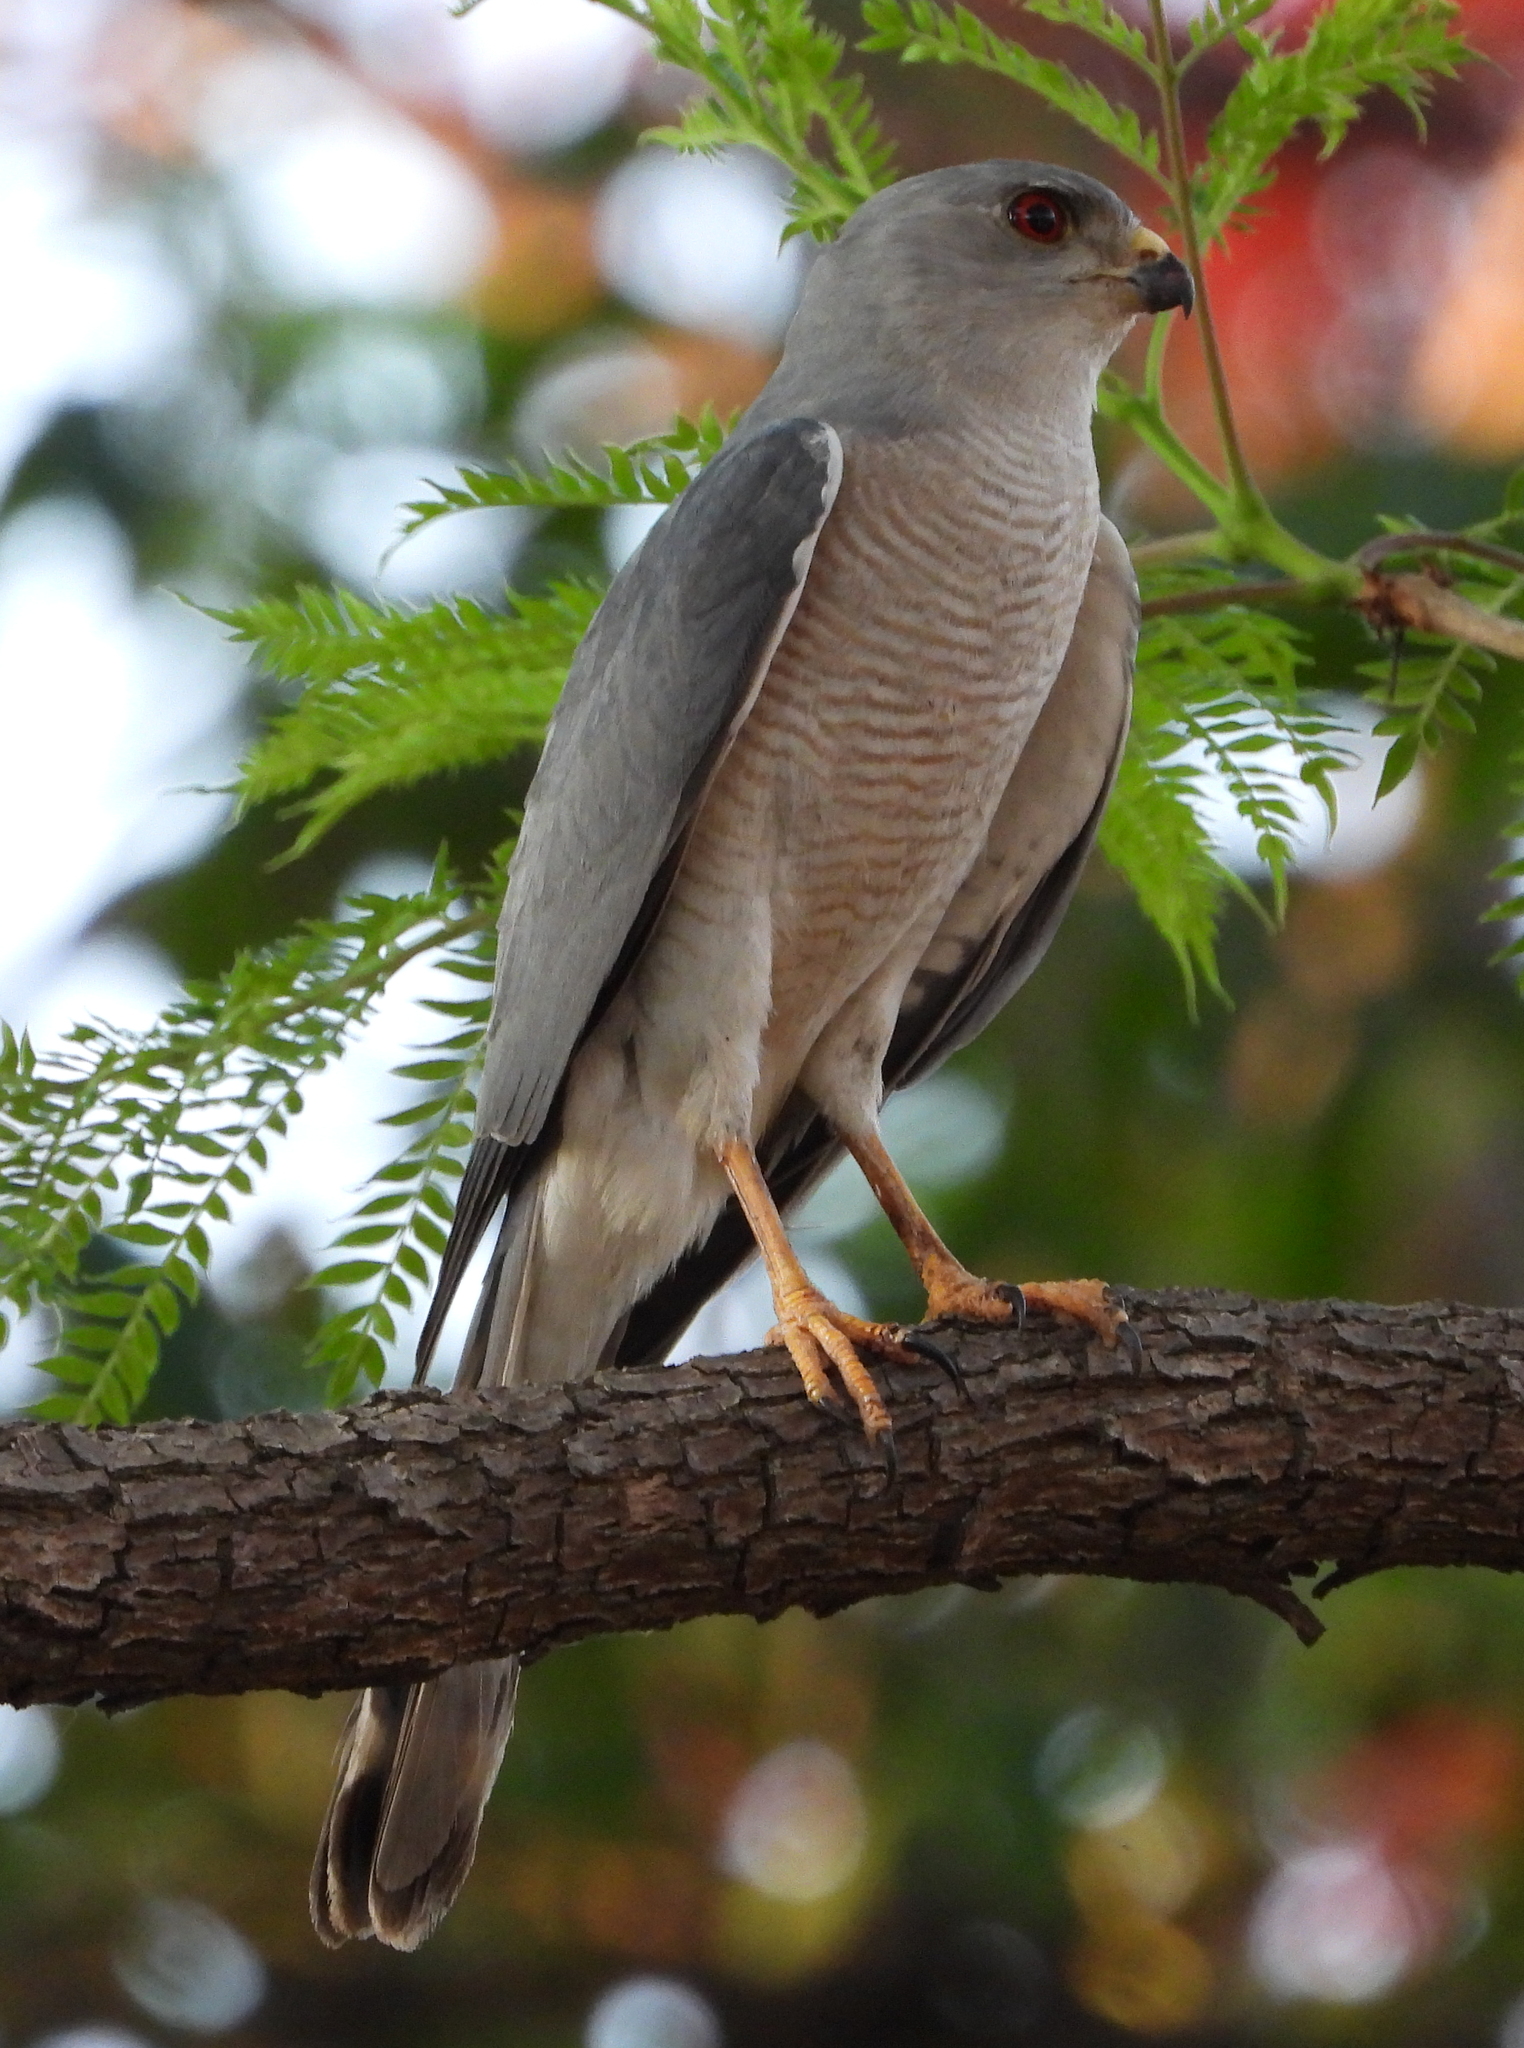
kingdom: Animalia
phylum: Chordata
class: Aves
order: Accipitriformes
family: Accipitridae
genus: Accipiter
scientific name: Accipiter badius
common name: Shikra
